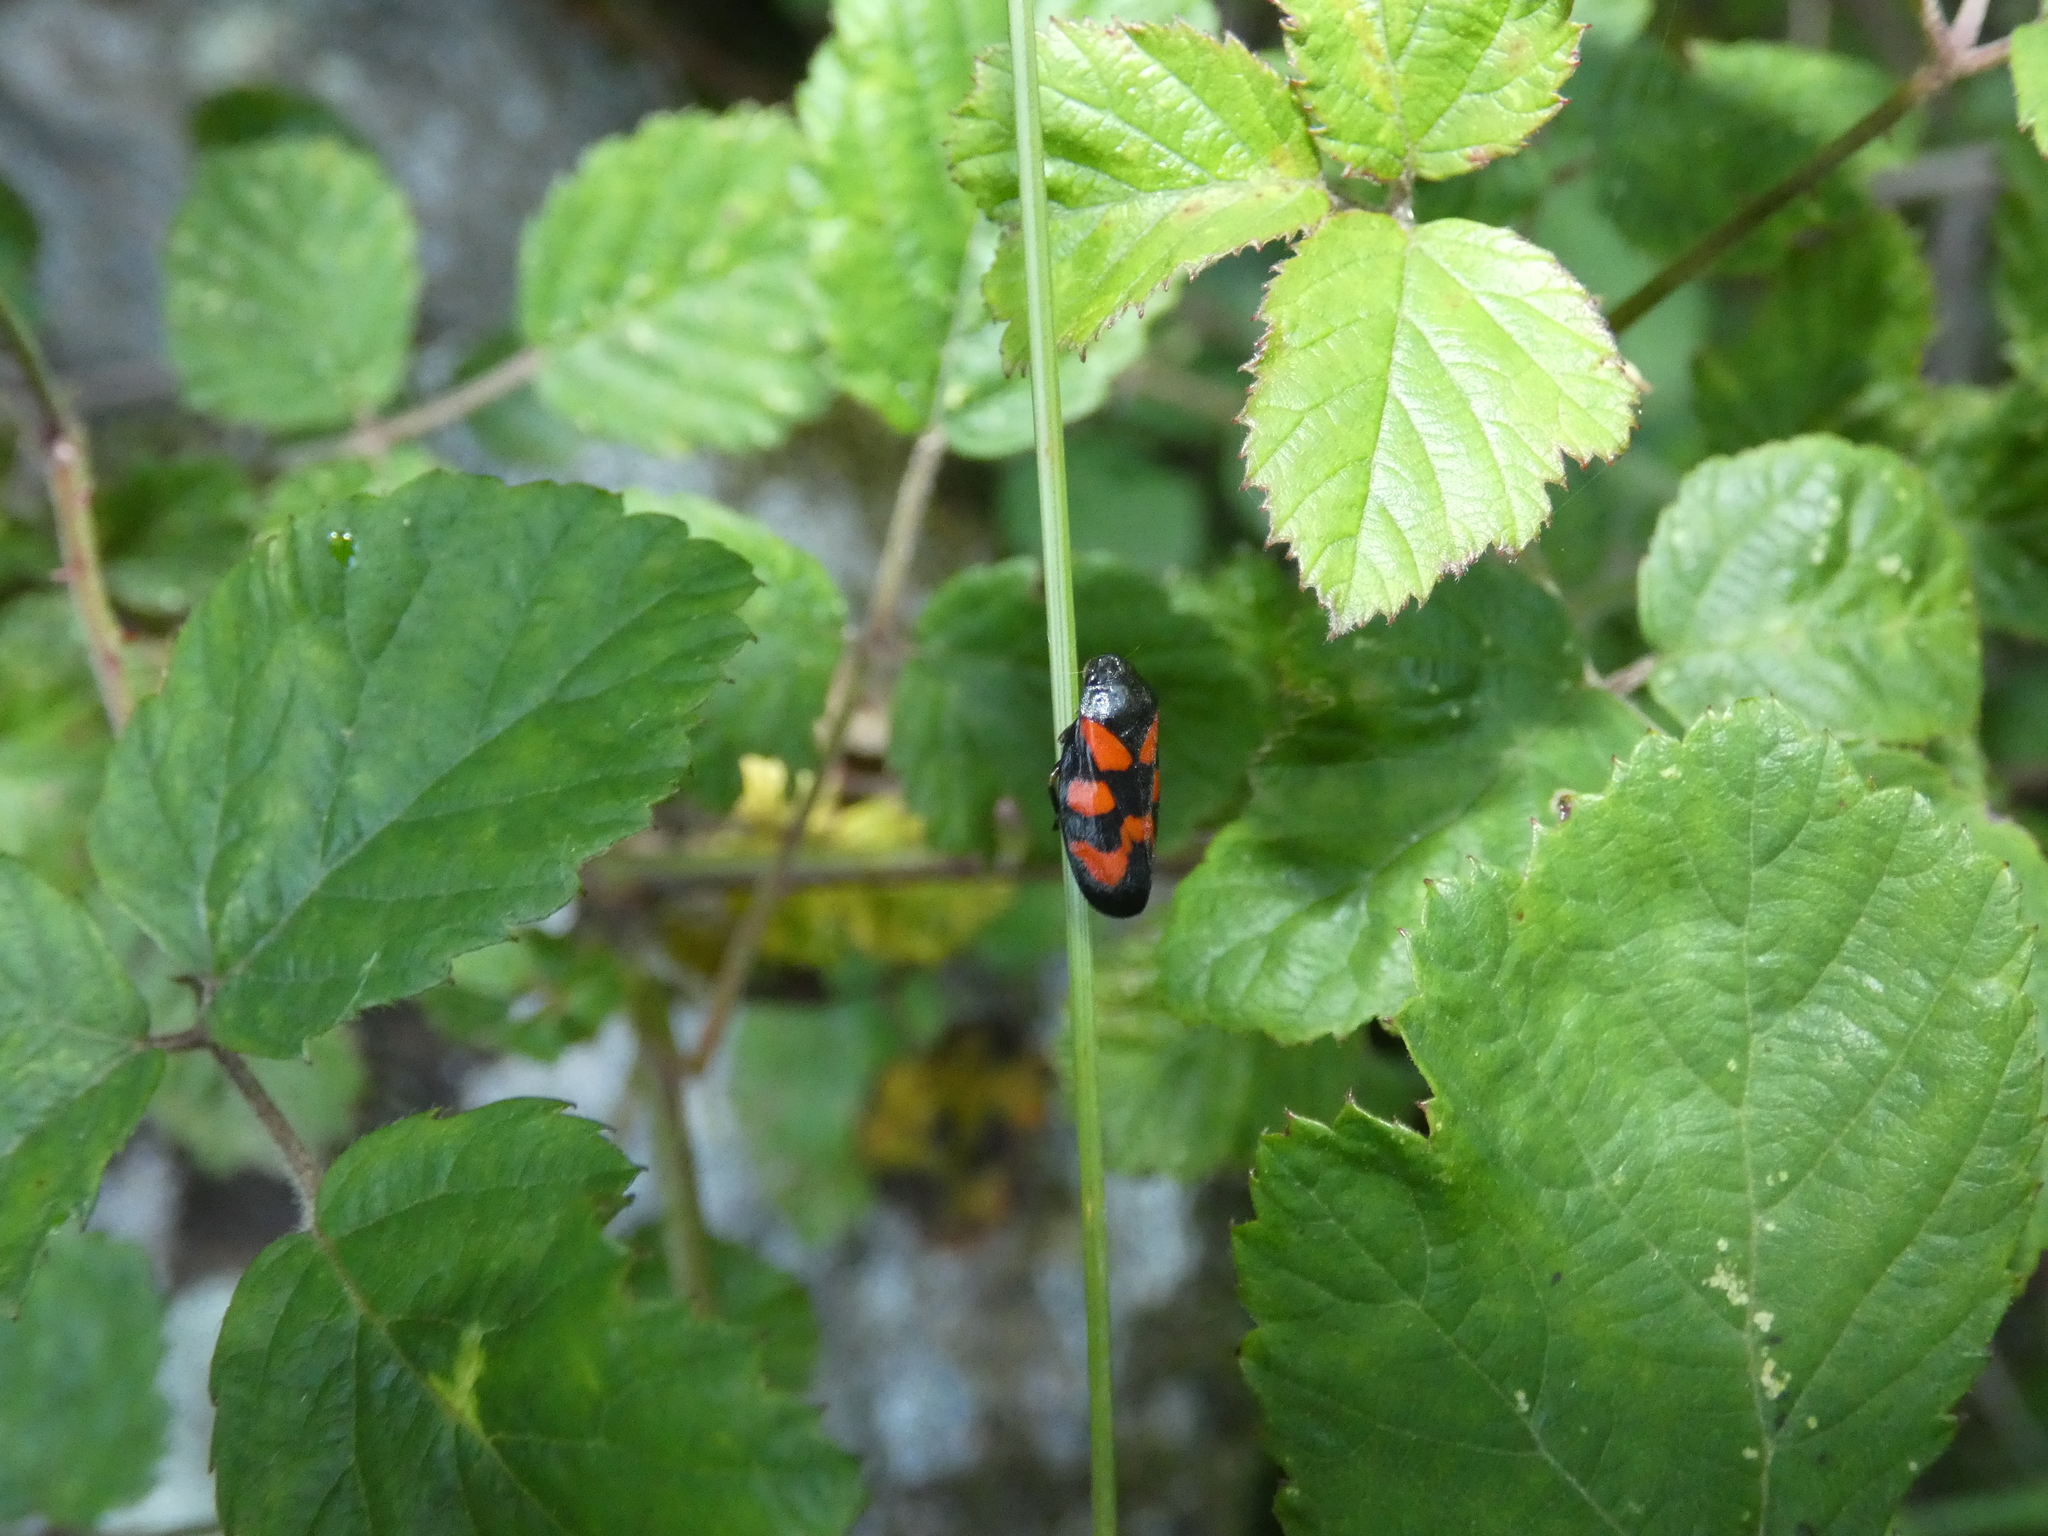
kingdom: Animalia
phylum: Arthropoda
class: Insecta
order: Hemiptera
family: Cercopidae
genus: Cercopis
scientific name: Cercopis vulnerata
